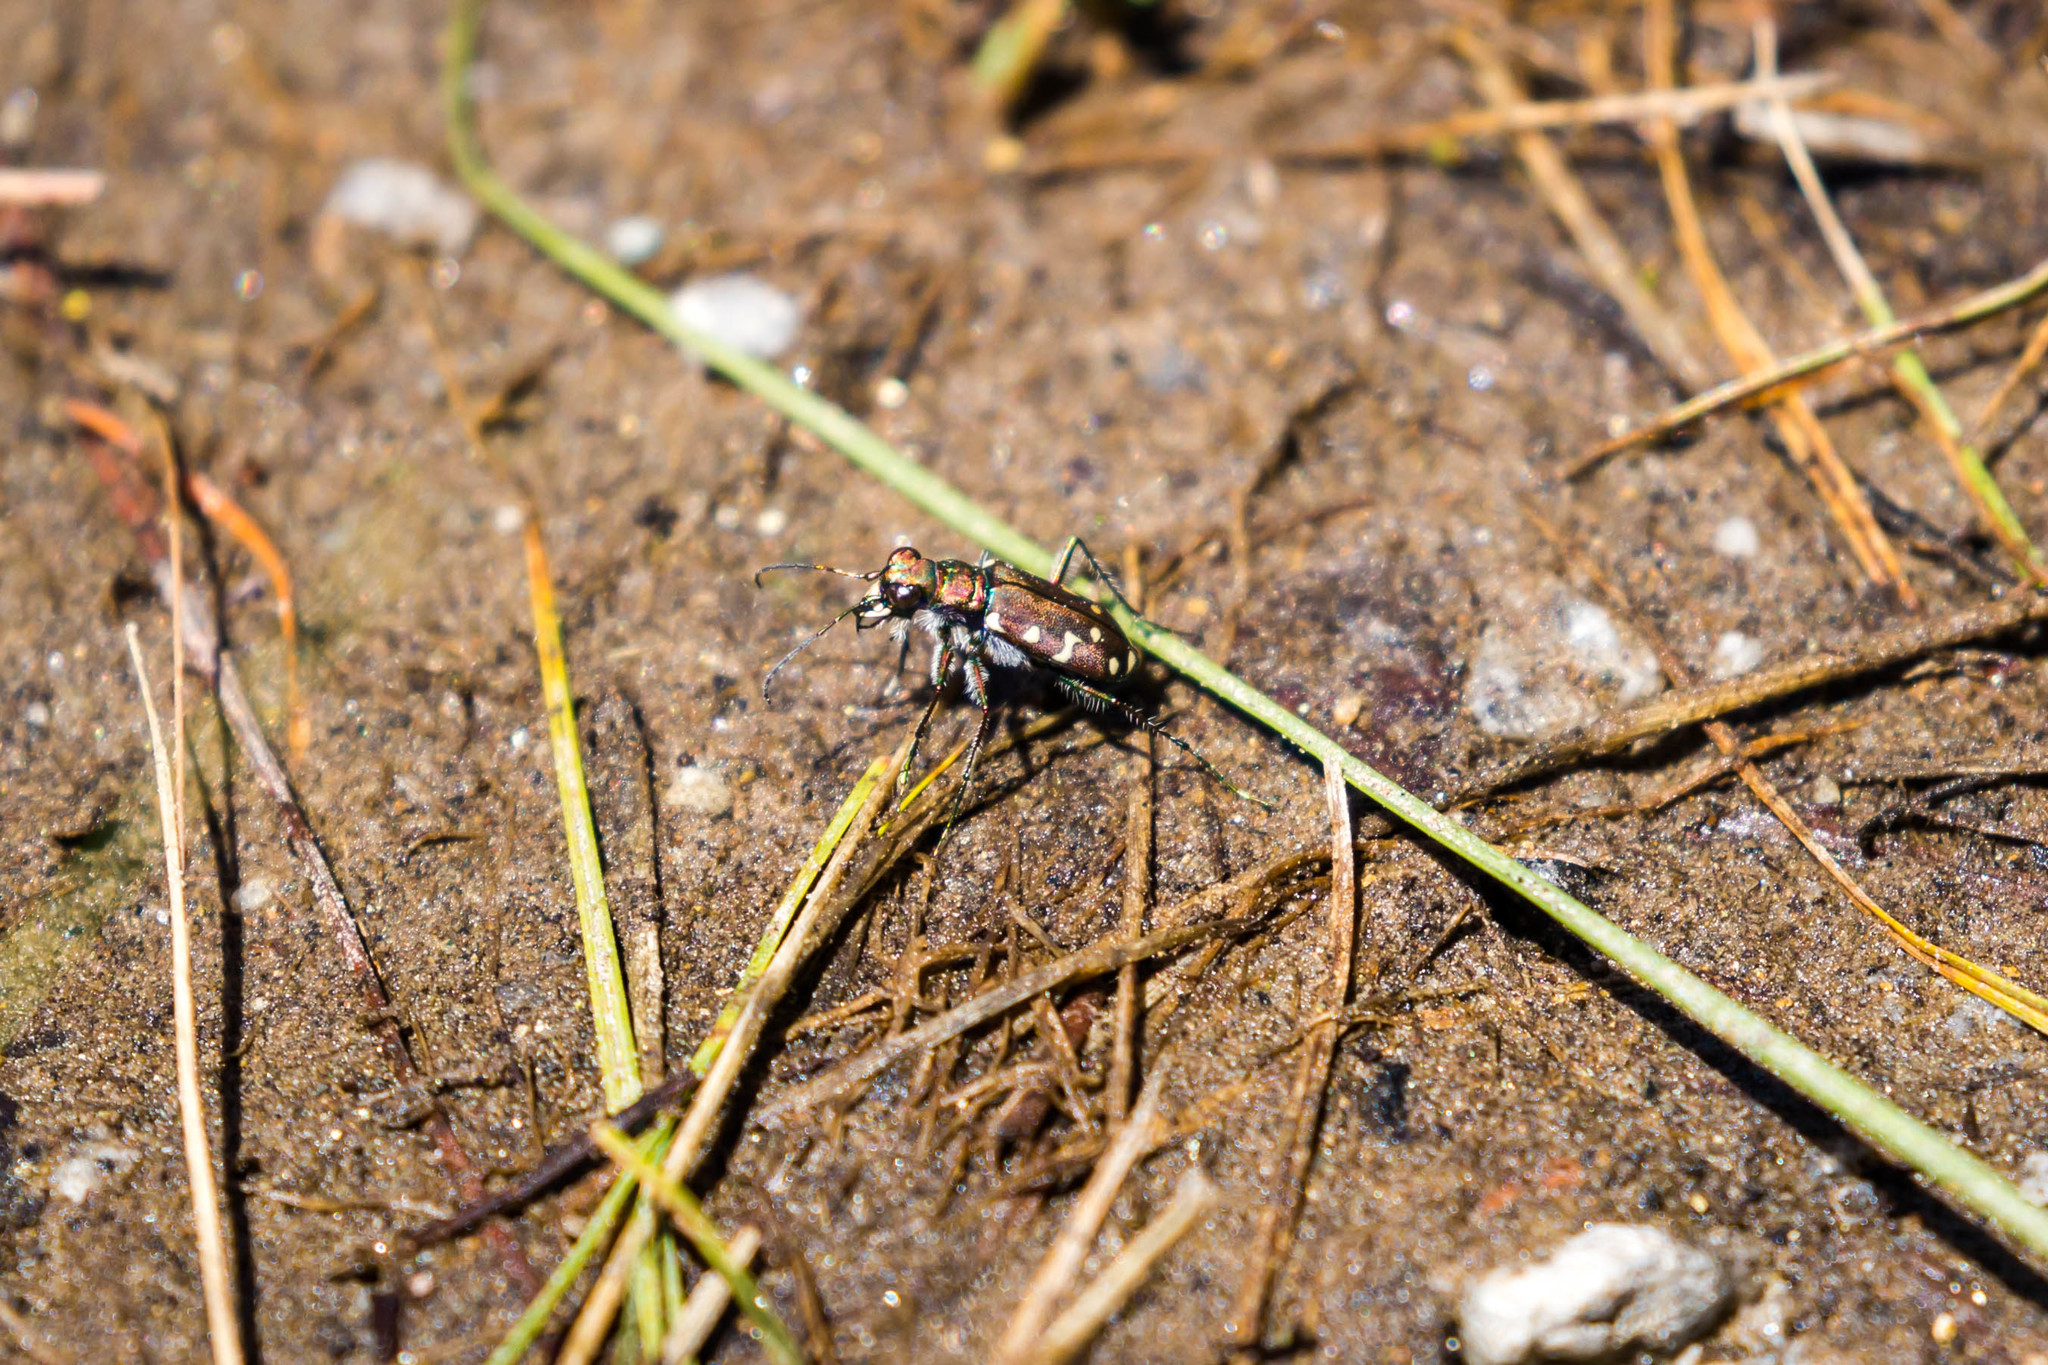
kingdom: Animalia
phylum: Arthropoda
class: Insecta
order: Coleoptera
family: Carabidae
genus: Cicindela
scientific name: Cicindela oregona
